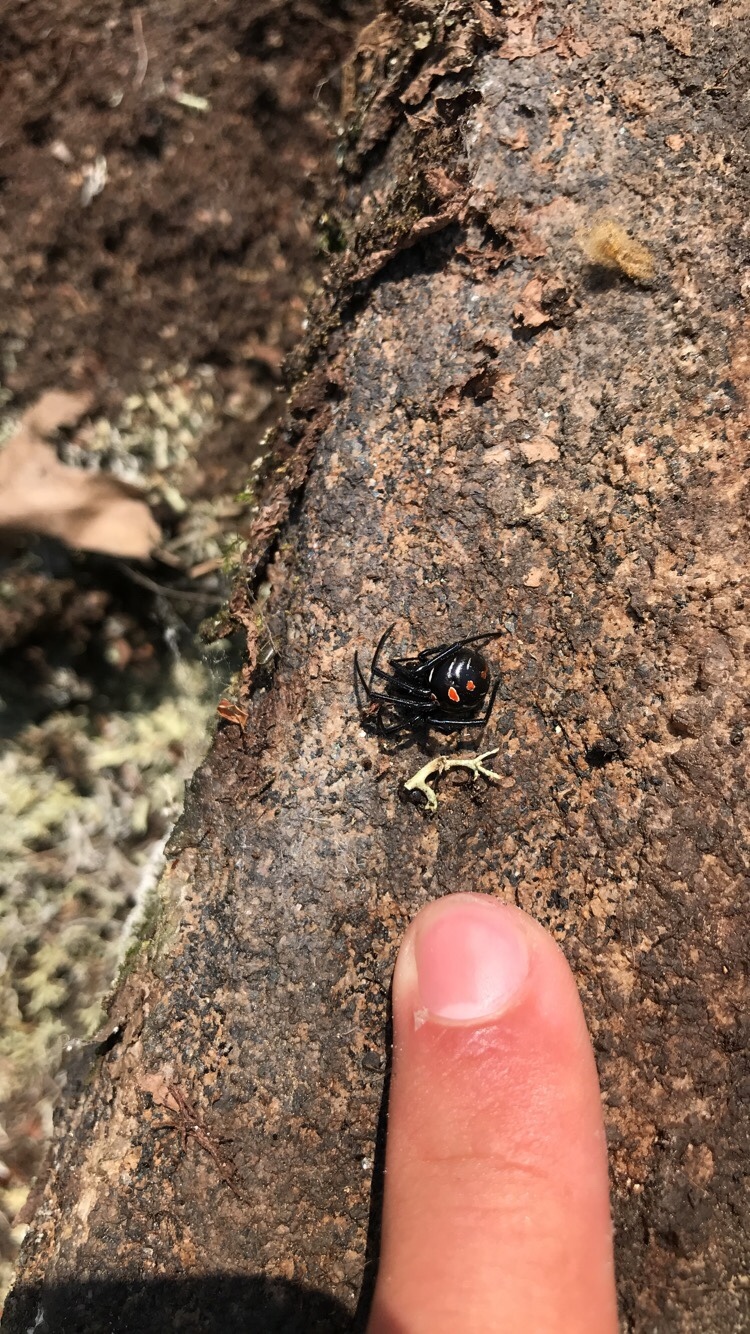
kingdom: Animalia
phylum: Arthropoda
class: Arachnida
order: Araneae
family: Theridiidae
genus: Latrodectus
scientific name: Latrodectus variolus
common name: Northern black widow
